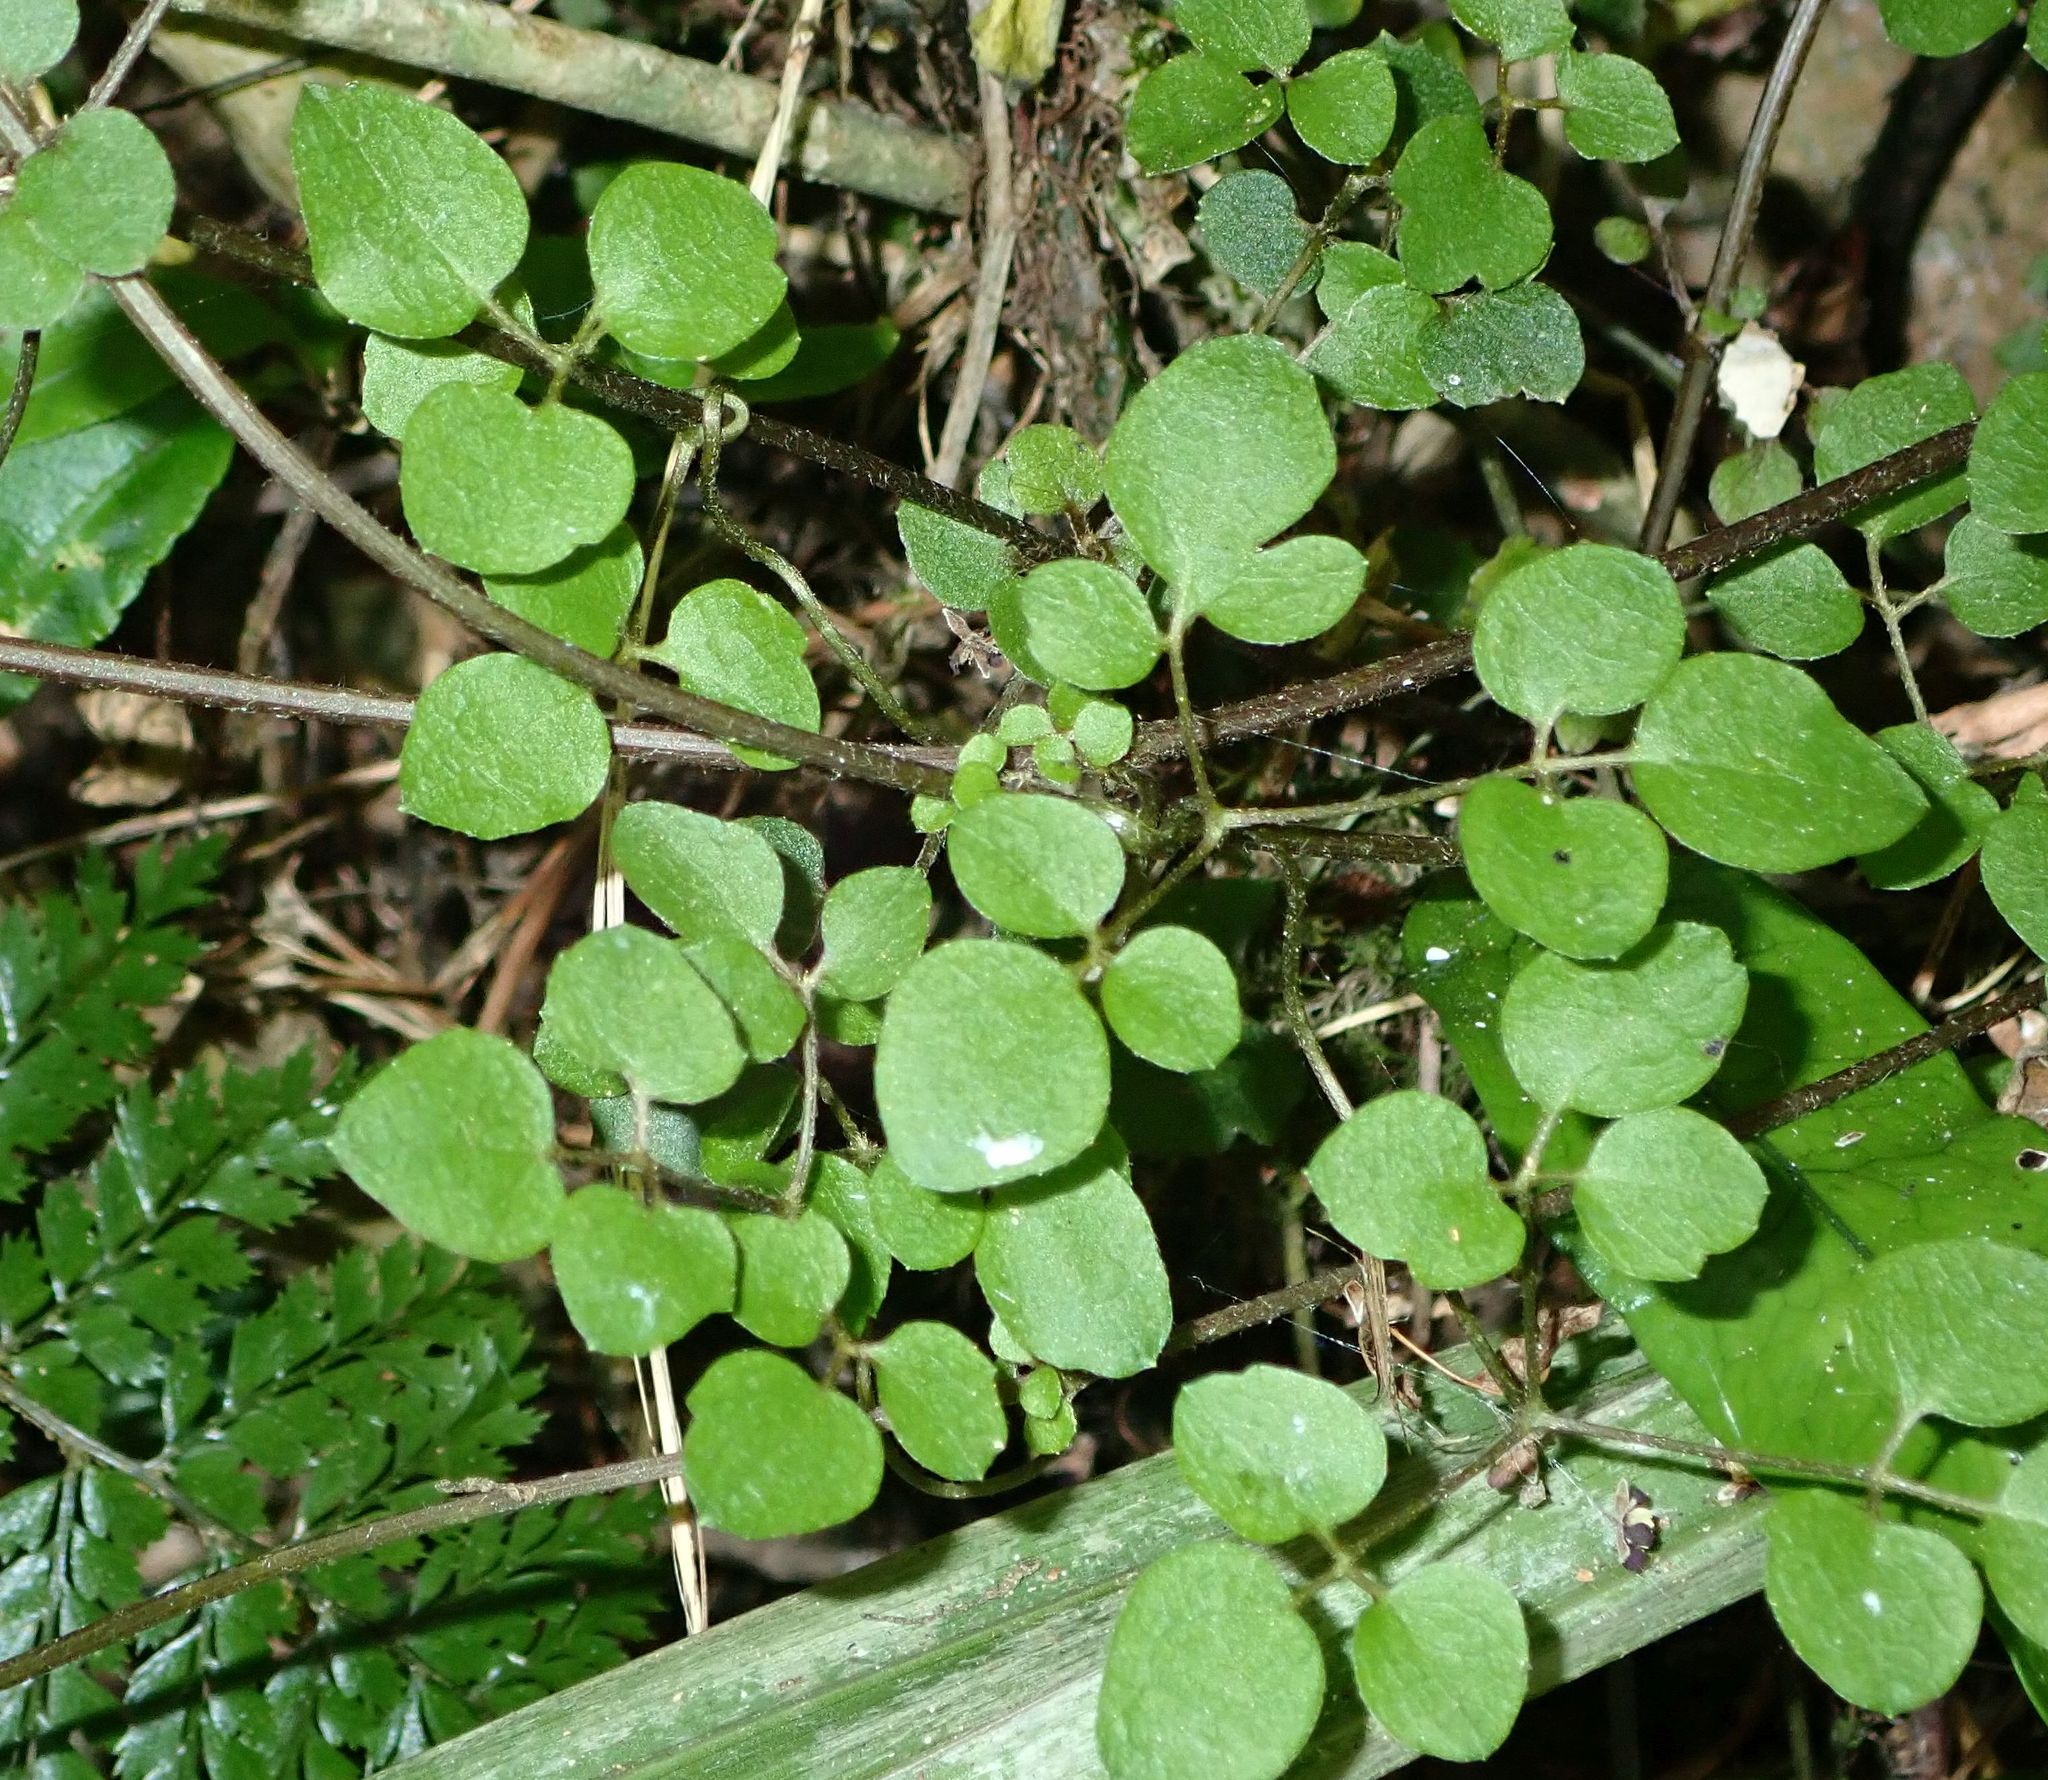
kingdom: Plantae
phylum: Tracheophyta
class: Magnoliopsida
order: Ranunculales
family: Ranunculaceae
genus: Clematis
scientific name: Clematis foetida
